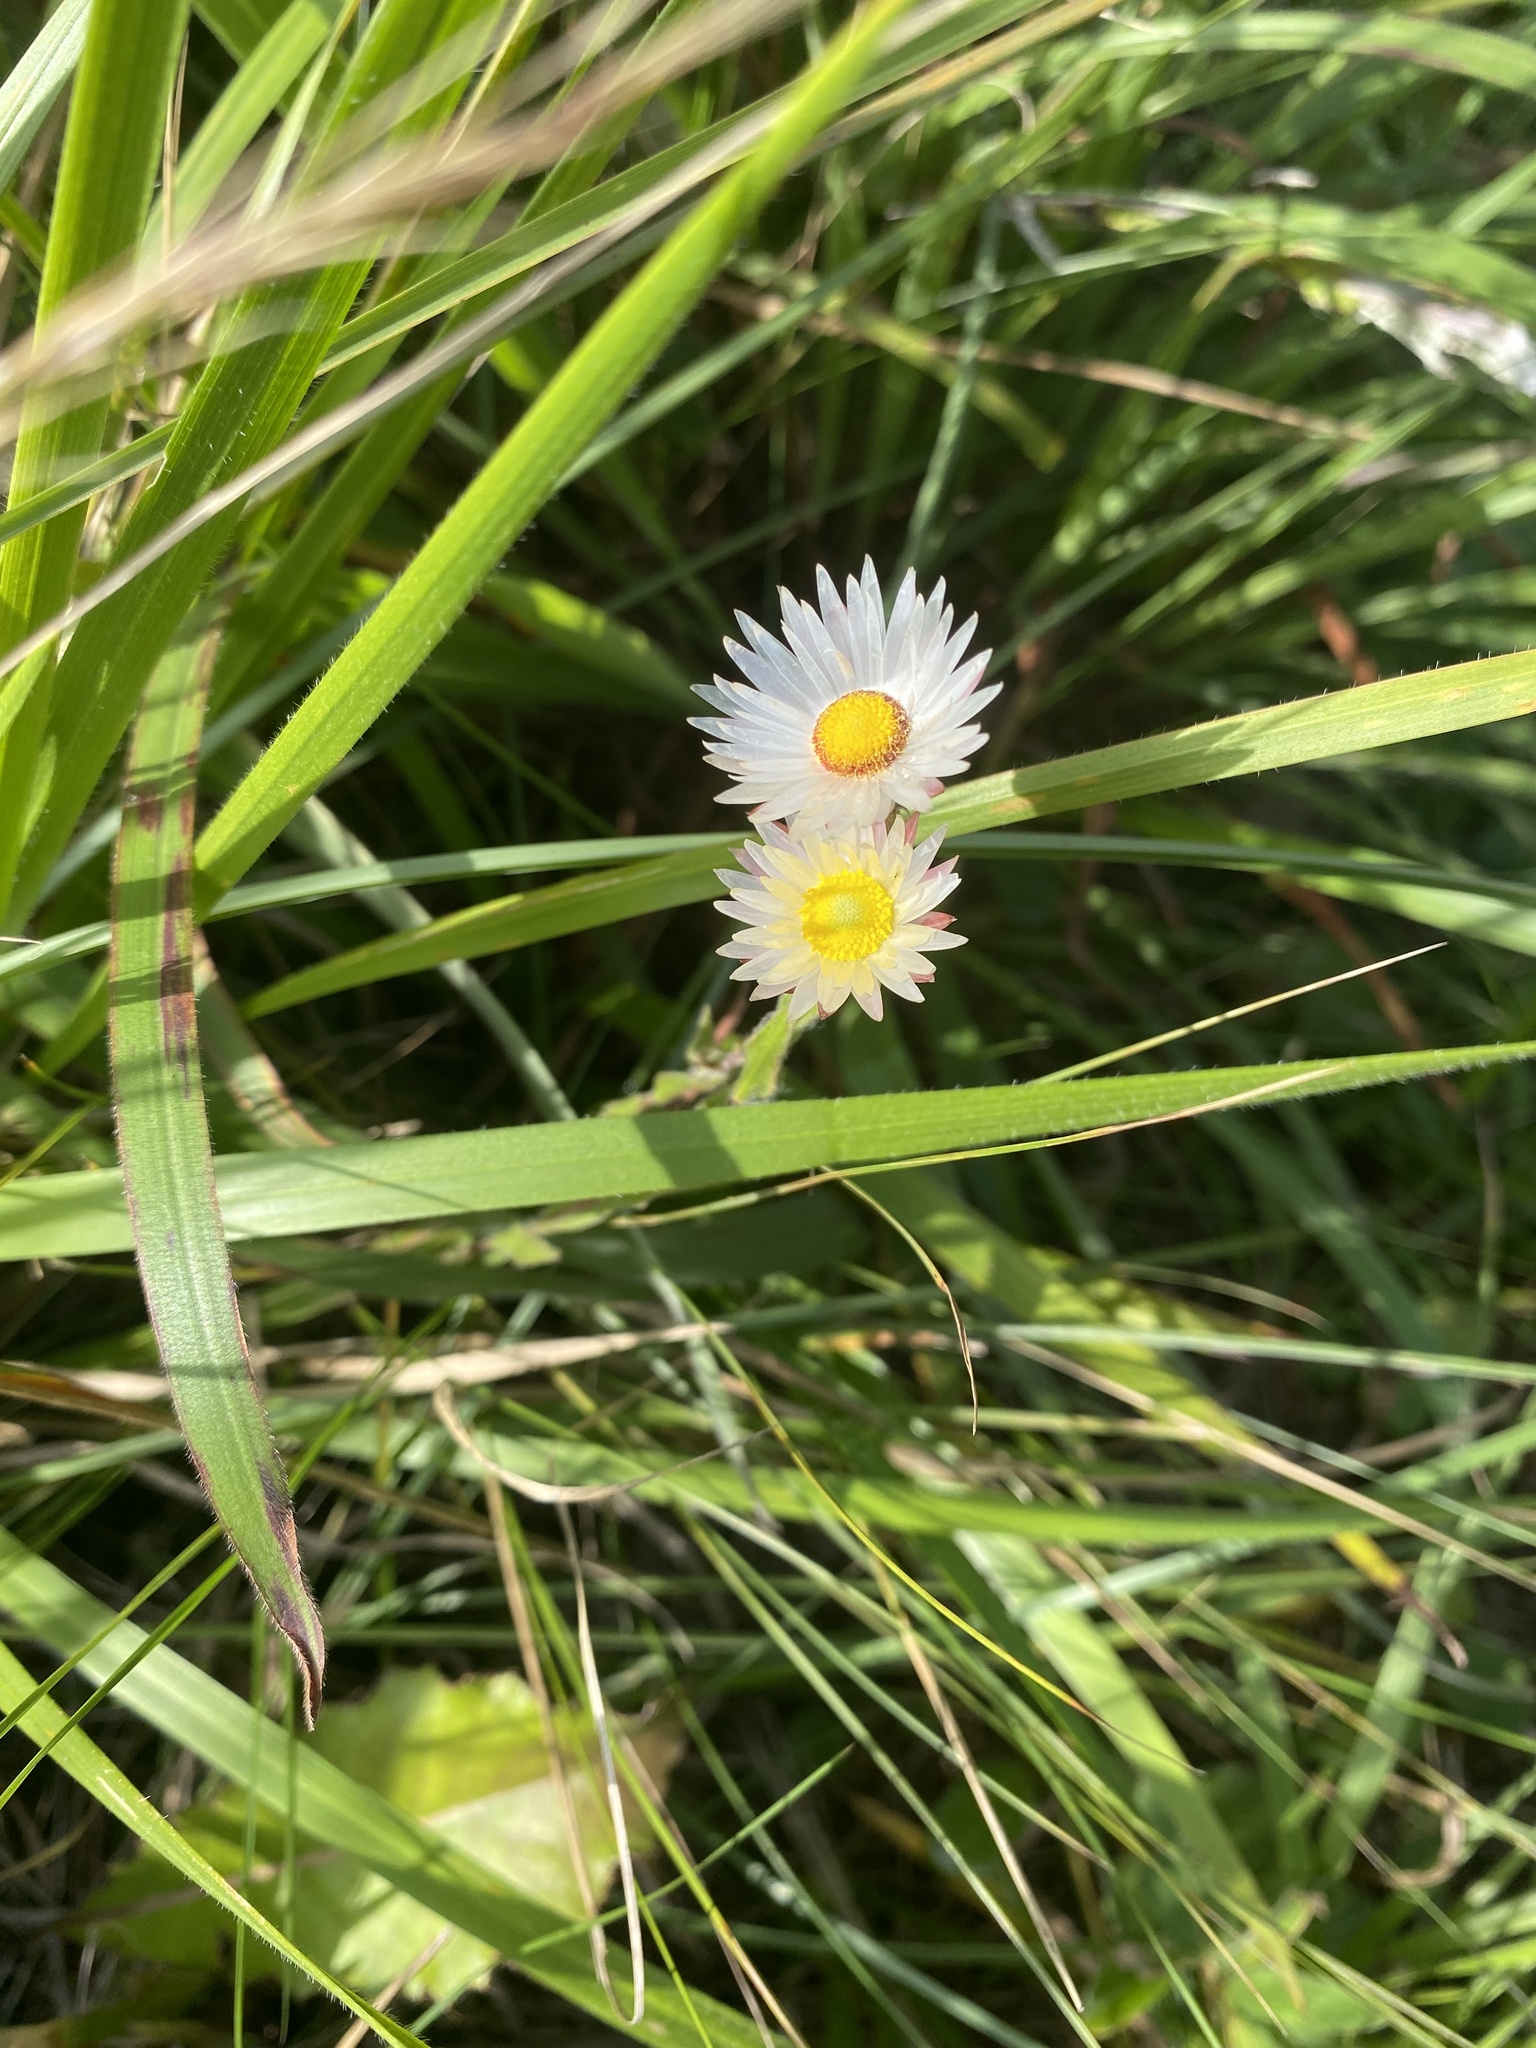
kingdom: Plantae
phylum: Tracheophyta
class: Magnoliopsida
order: Asterales
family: Asteraceae
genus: Helichrysum
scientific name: Helichrysum adenocarpum
